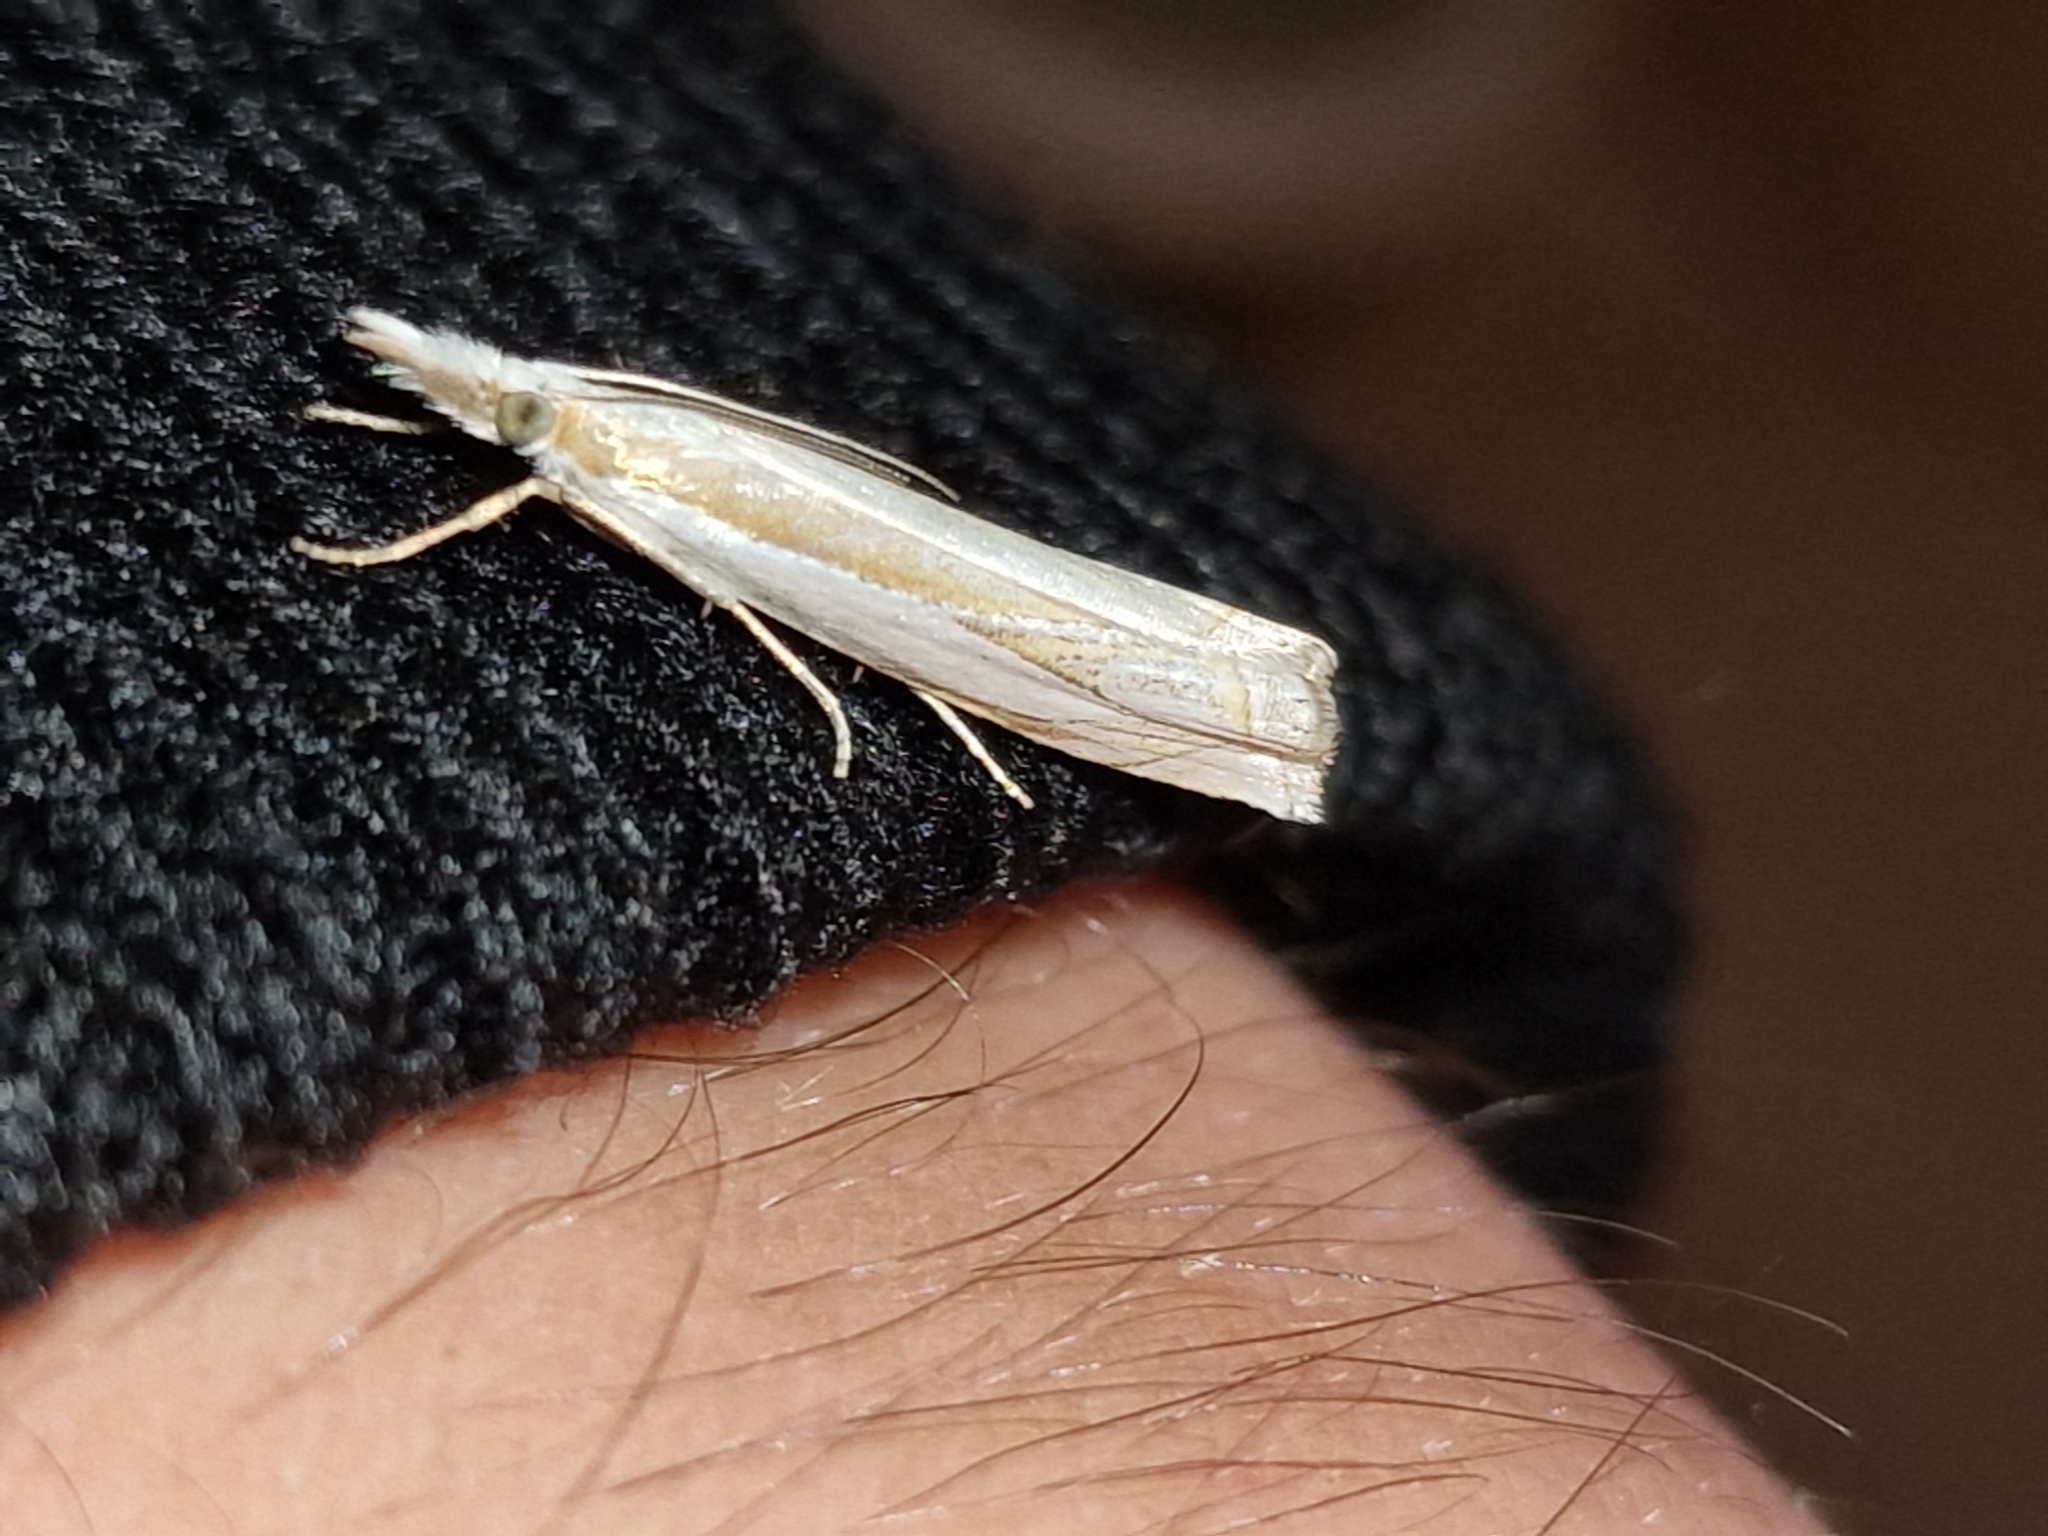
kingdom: Animalia
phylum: Arthropoda
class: Insecta
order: Lepidoptera
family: Crambidae
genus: Crambus
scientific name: Crambus pascuella
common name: Inlaid grass-veneer
